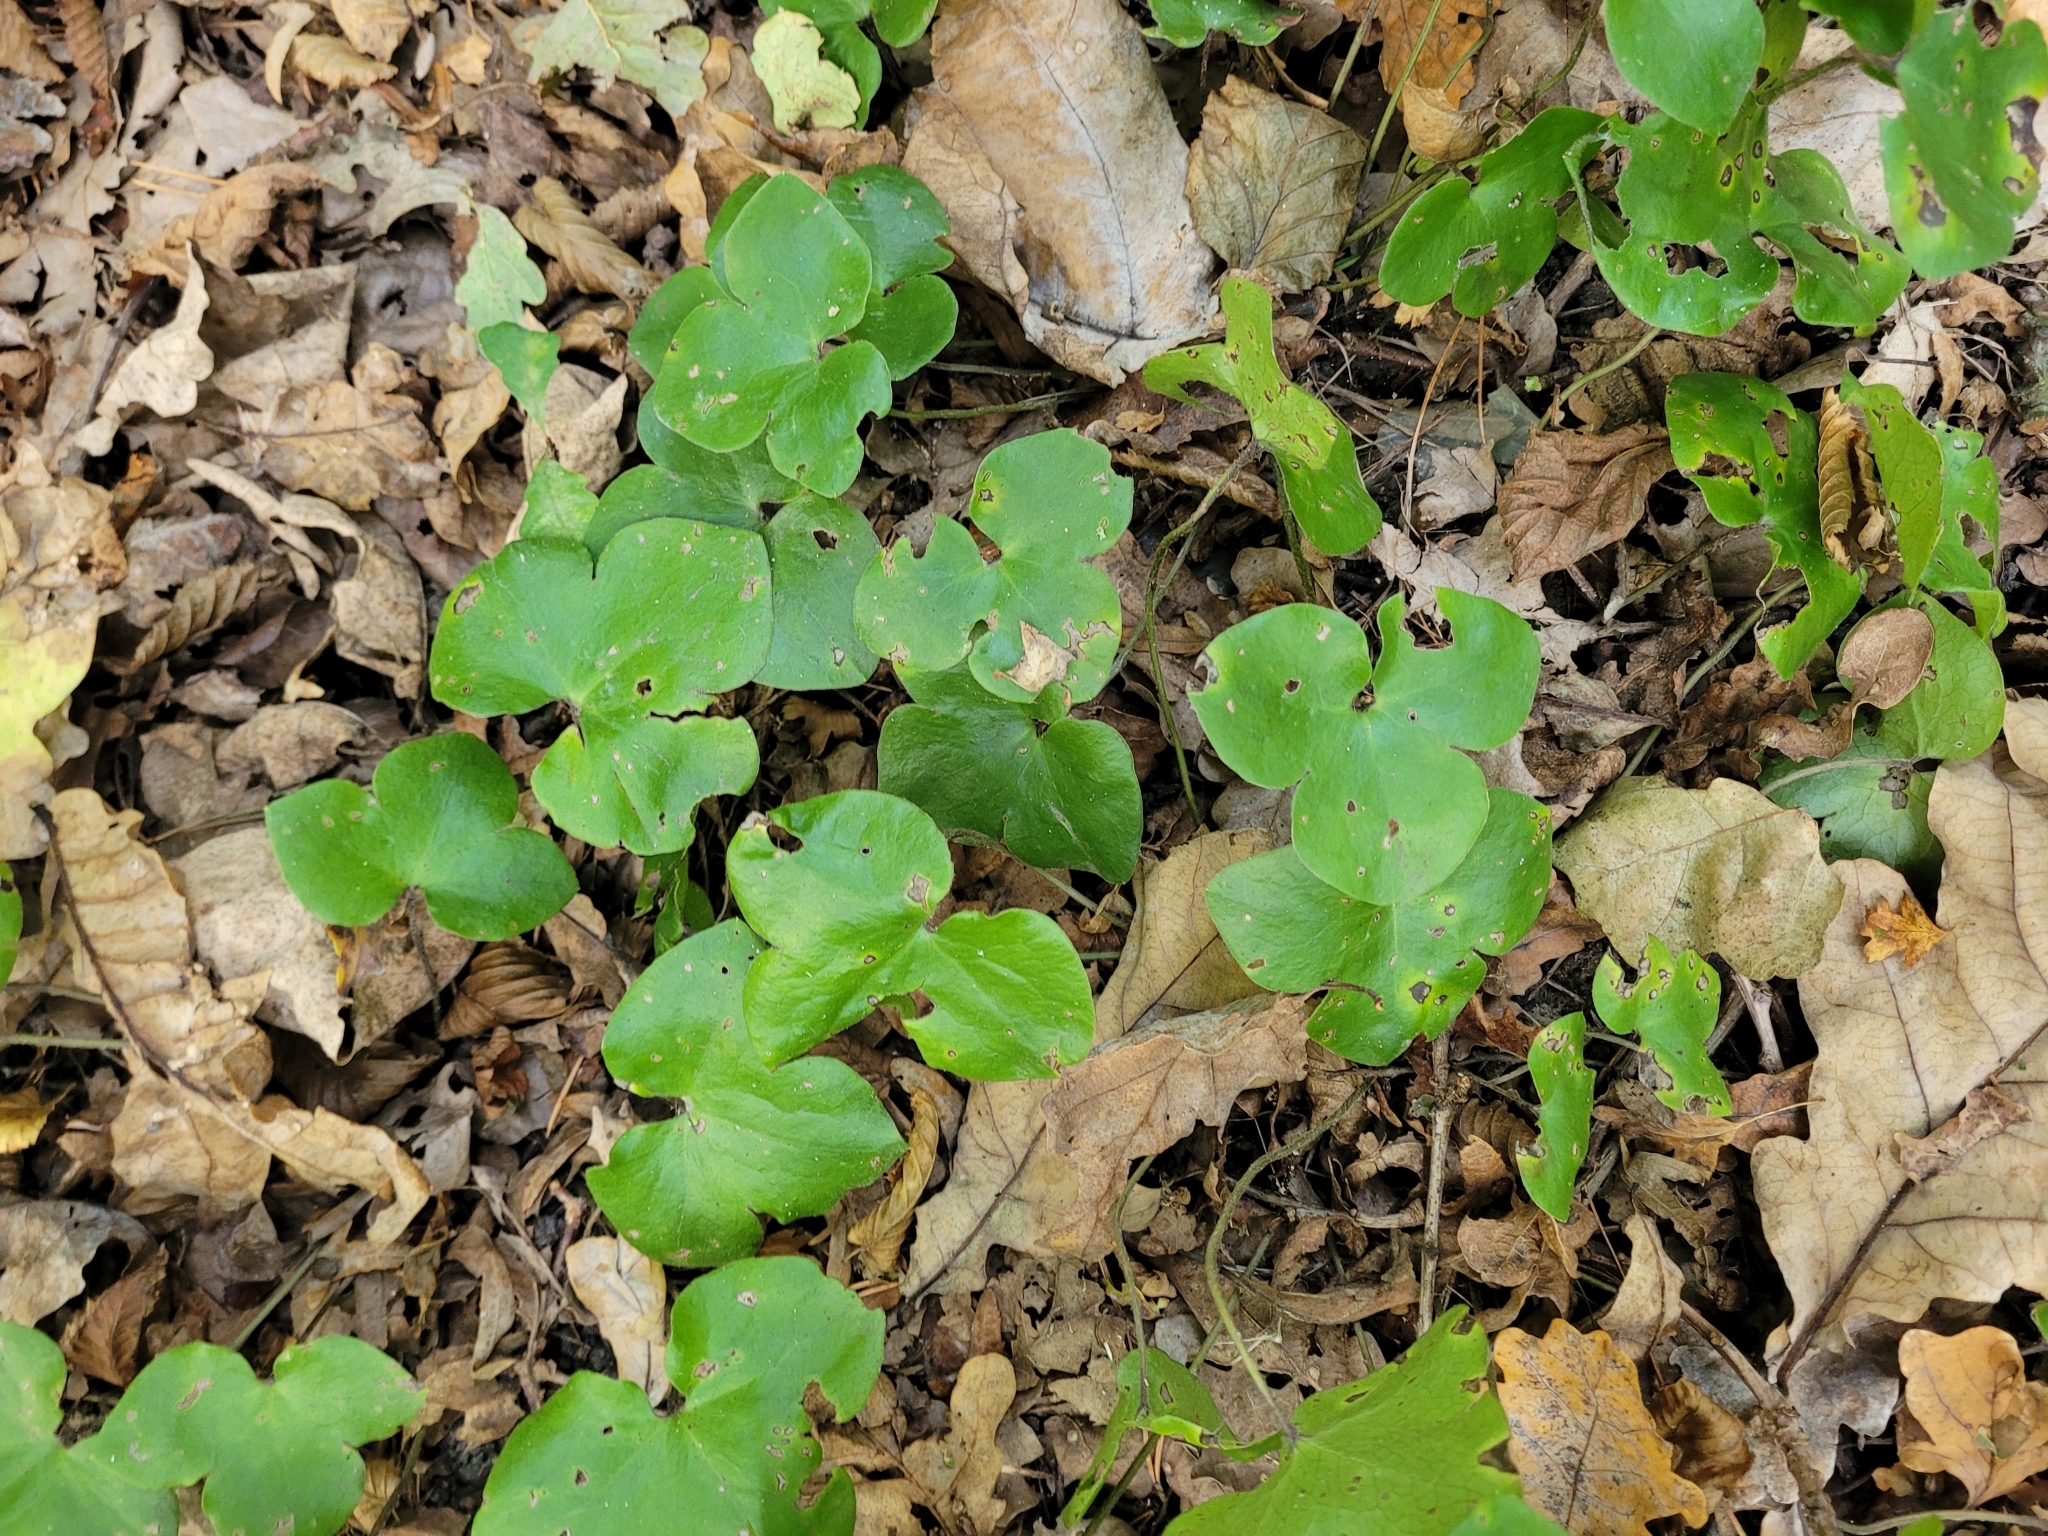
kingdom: Plantae
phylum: Tracheophyta
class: Magnoliopsida
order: Ranunculales
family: Ranunculaceae
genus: Hepatica
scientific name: Hepatica nobilis
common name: Liverleaf
